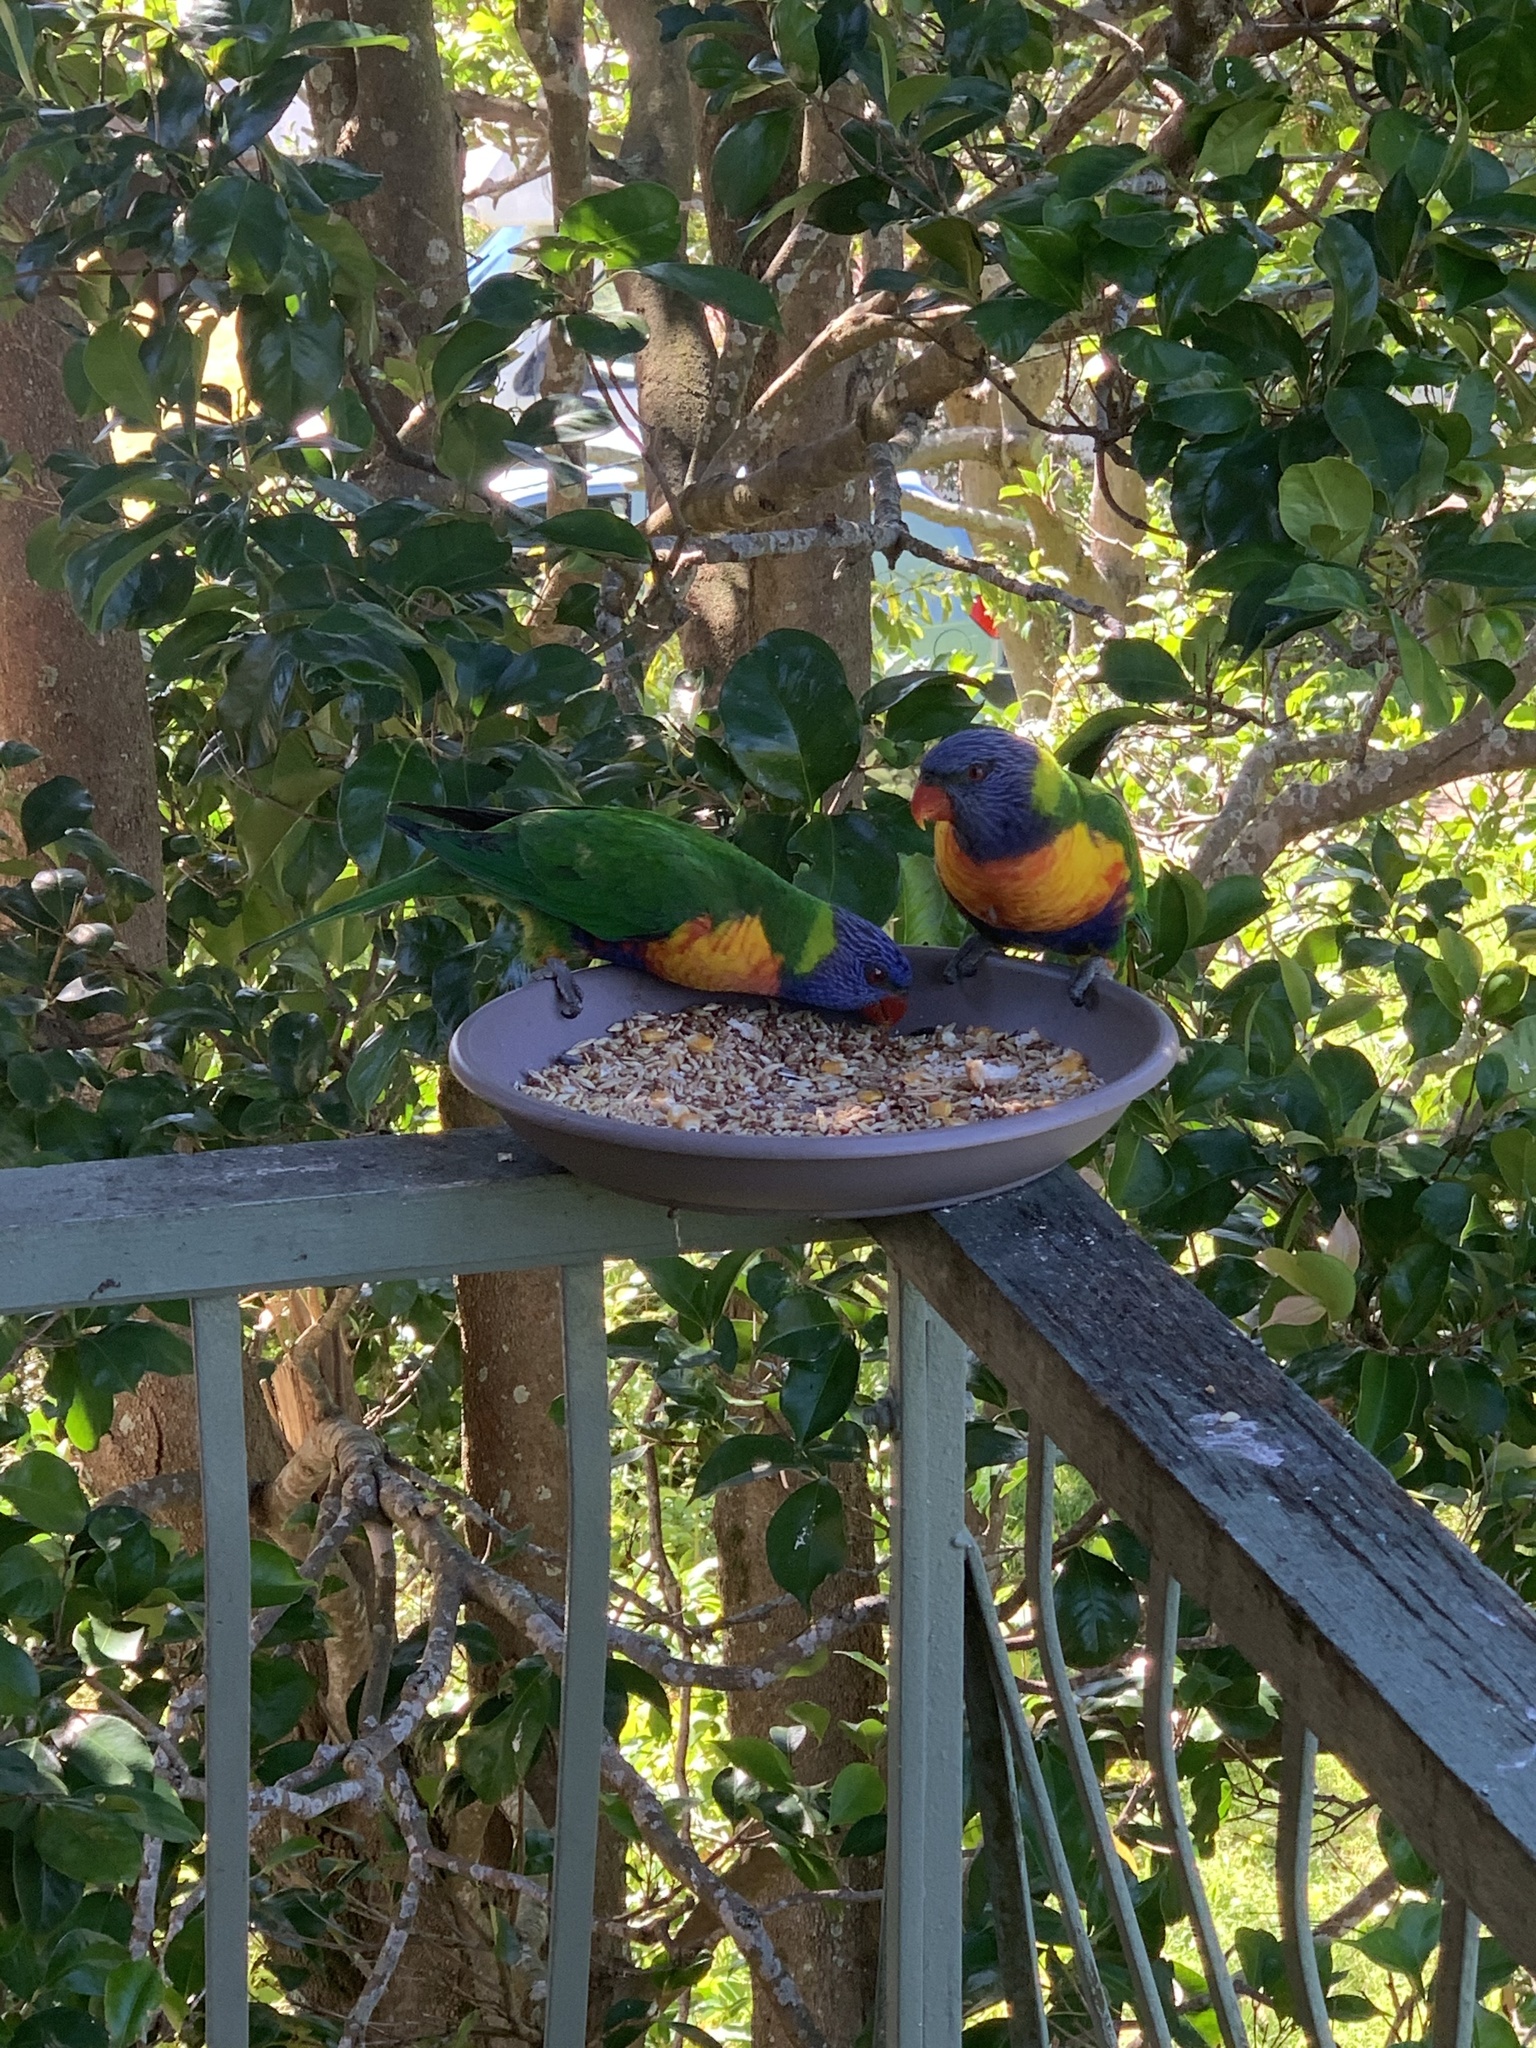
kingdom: Animalia
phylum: Chordata
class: Aves
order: Psittaciformes
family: Psittacidae
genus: Trichoglossus
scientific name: Trichoglossus haematodus
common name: Coconut lorikeet
